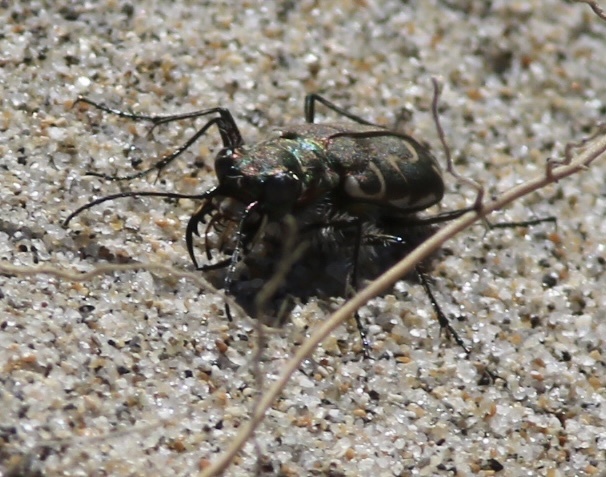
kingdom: Animalia
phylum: Arthropoda
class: Insecta
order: Coleoptera
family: Carabidae
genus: Cicindela
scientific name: Cicindela hirticollis
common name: Hairy-necked tiger beetle
